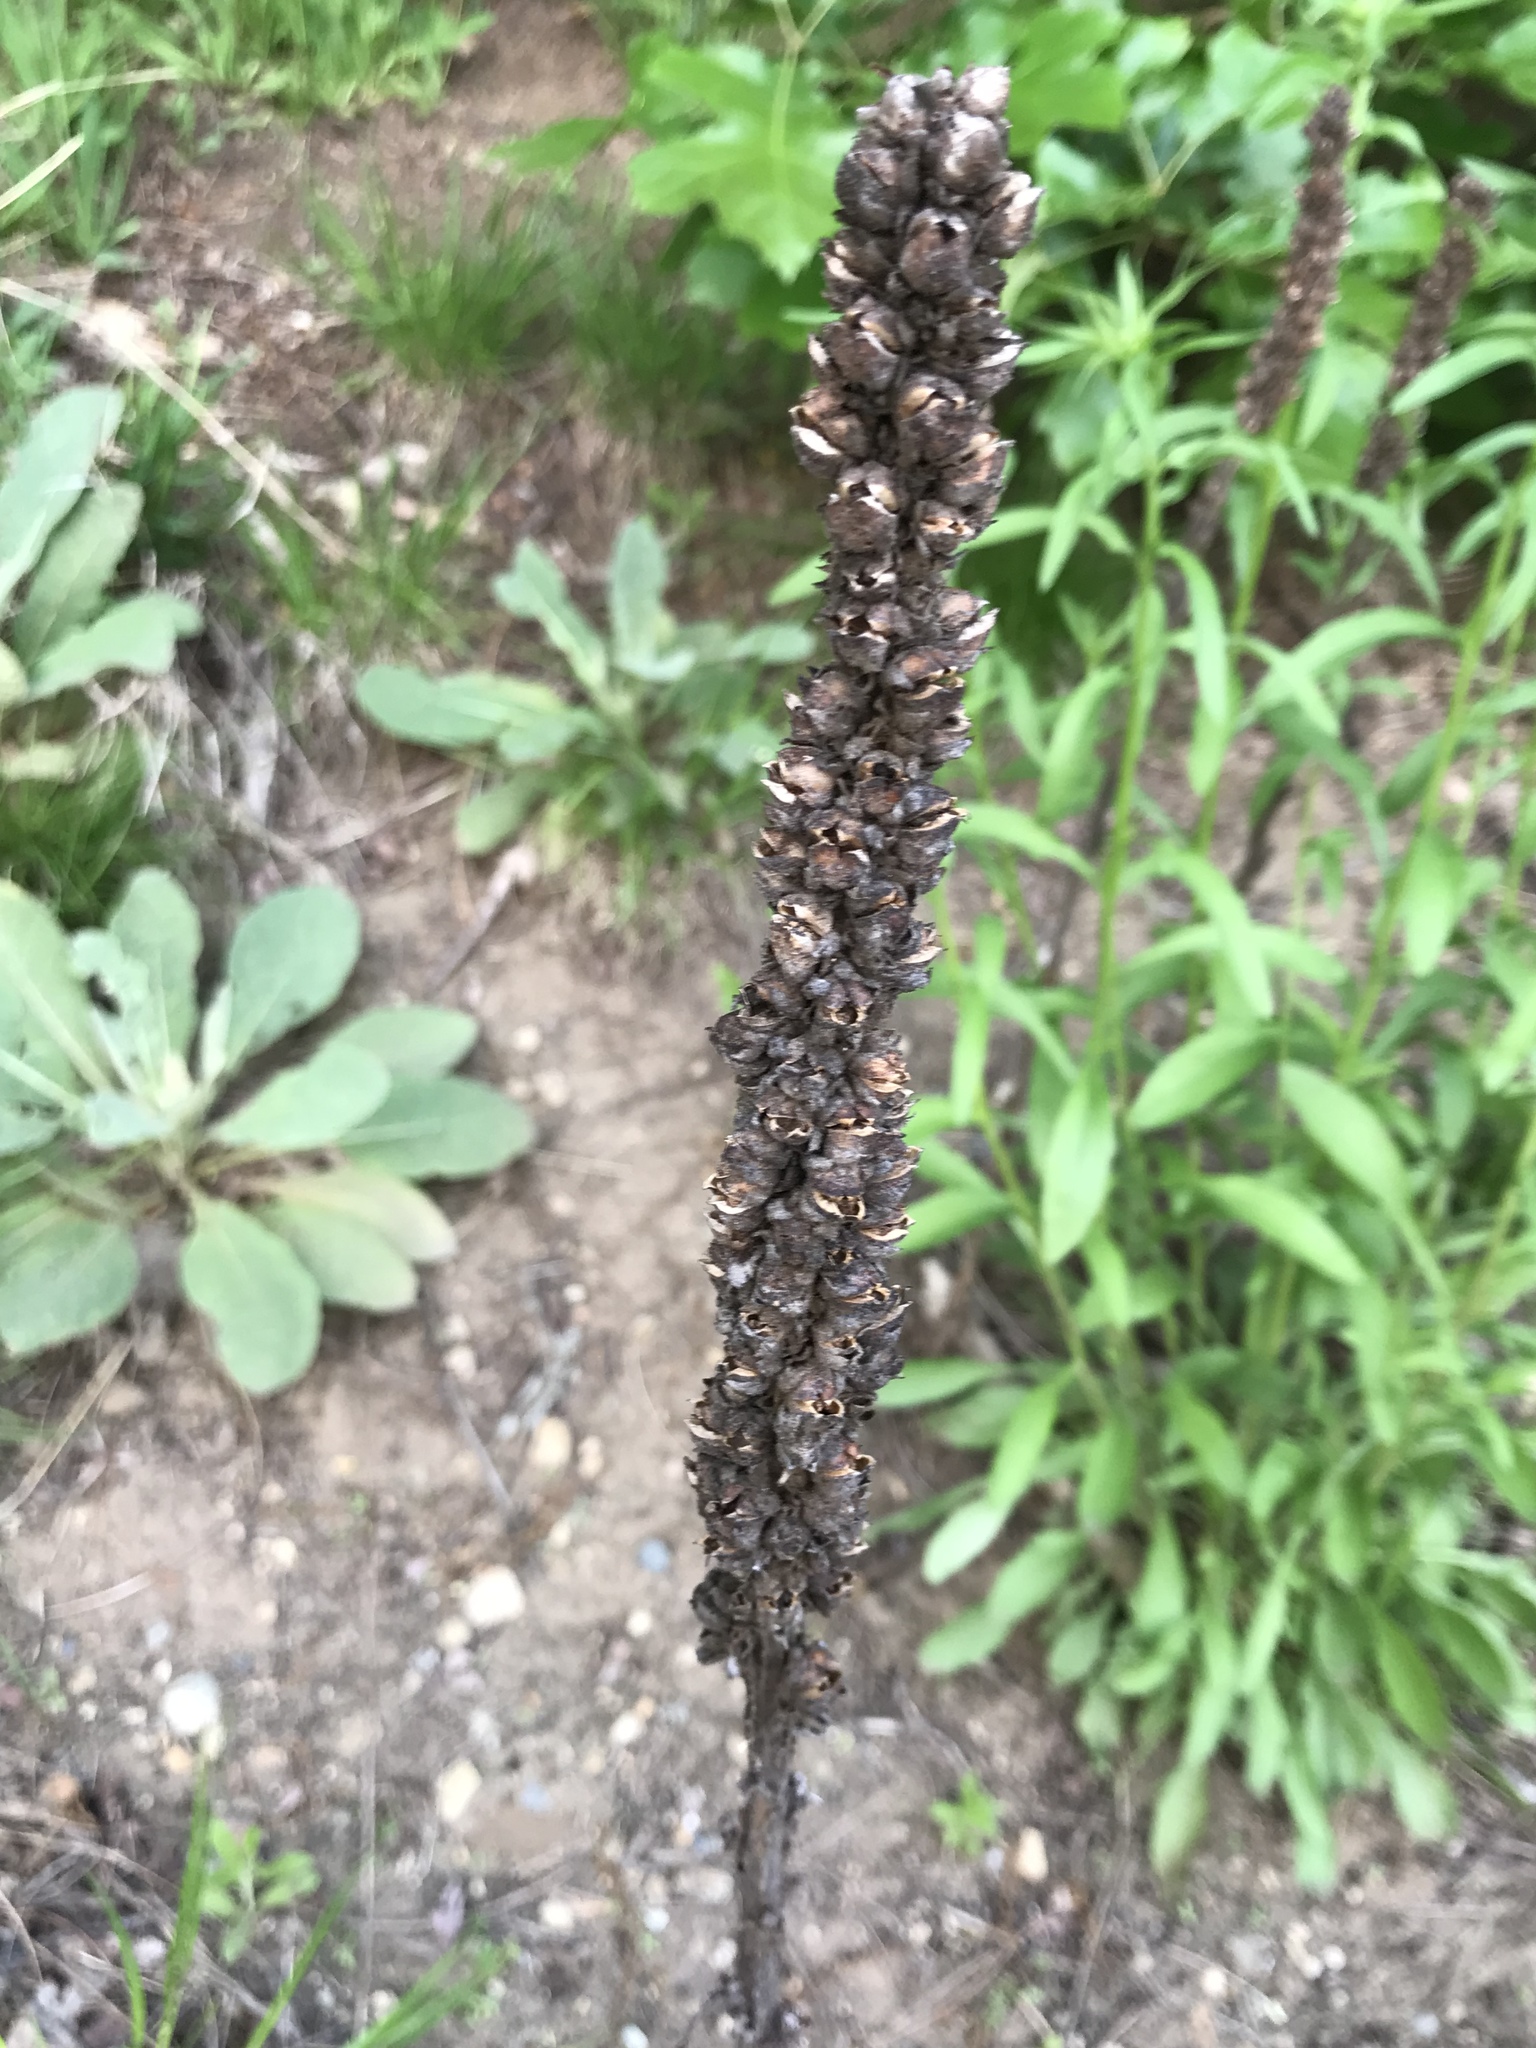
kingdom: Plantae
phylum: Tracheophyta
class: Magnoliopsida
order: Lamiales
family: Scrophulariaceae
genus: Verbascum
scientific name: Verbascum thapsus
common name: Common mullein
